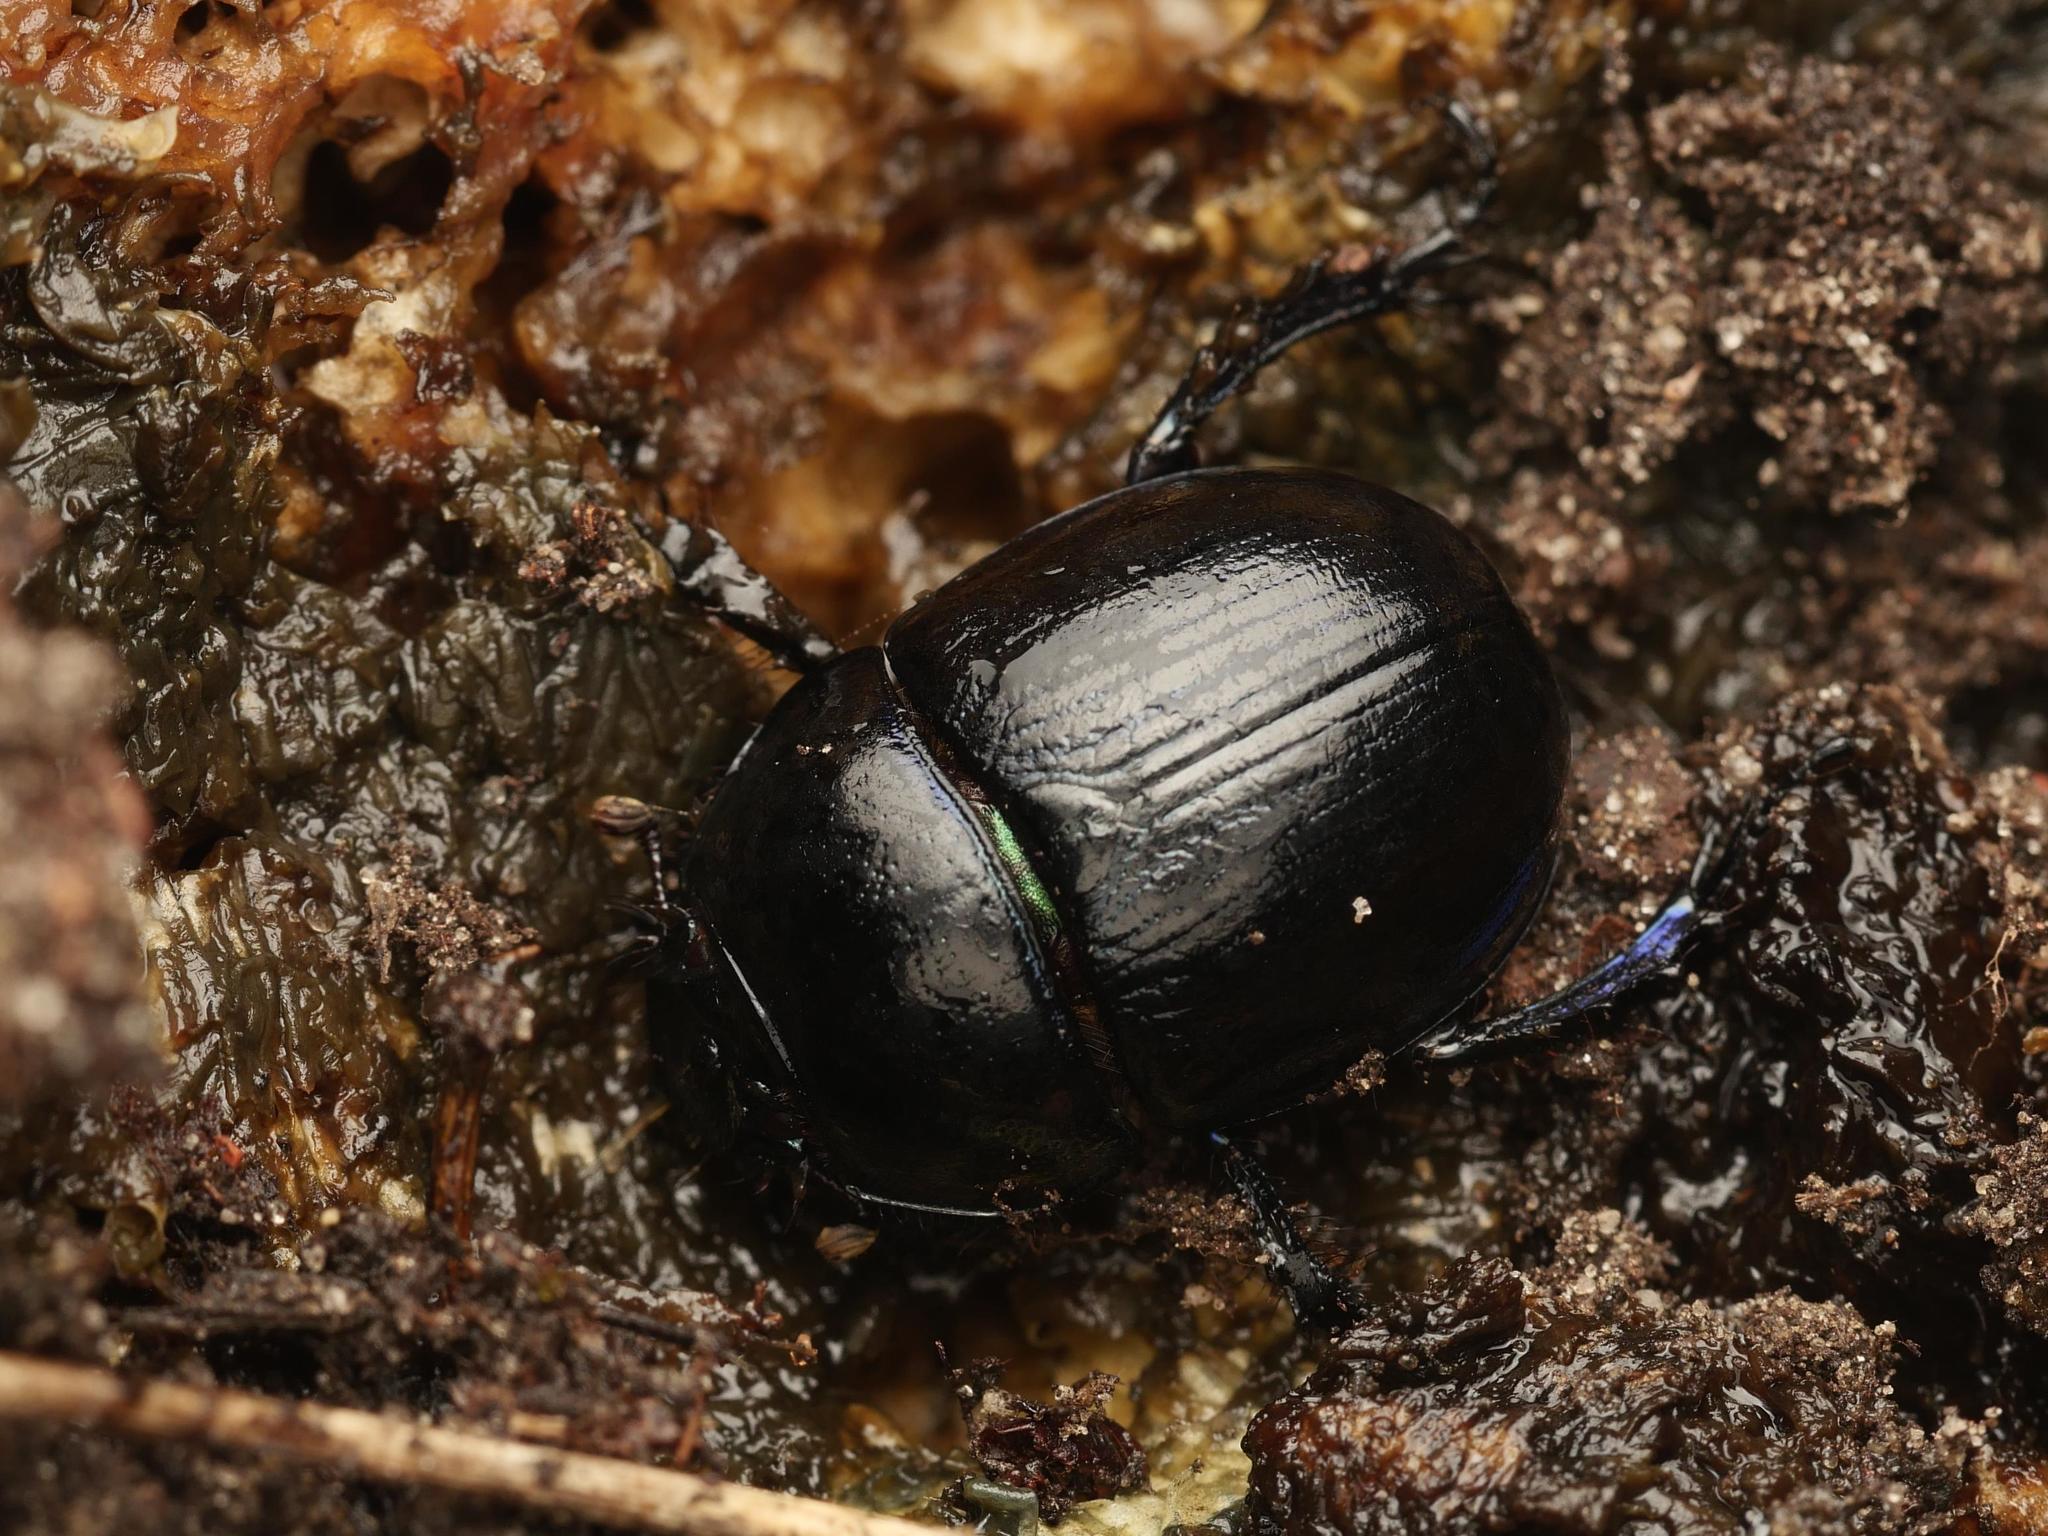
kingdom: Animalia
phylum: Arthropoda
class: Insecta
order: Coleoptera
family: Geotrupidae
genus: Anoplotrupes
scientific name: Anoplotrupes stercorosus
